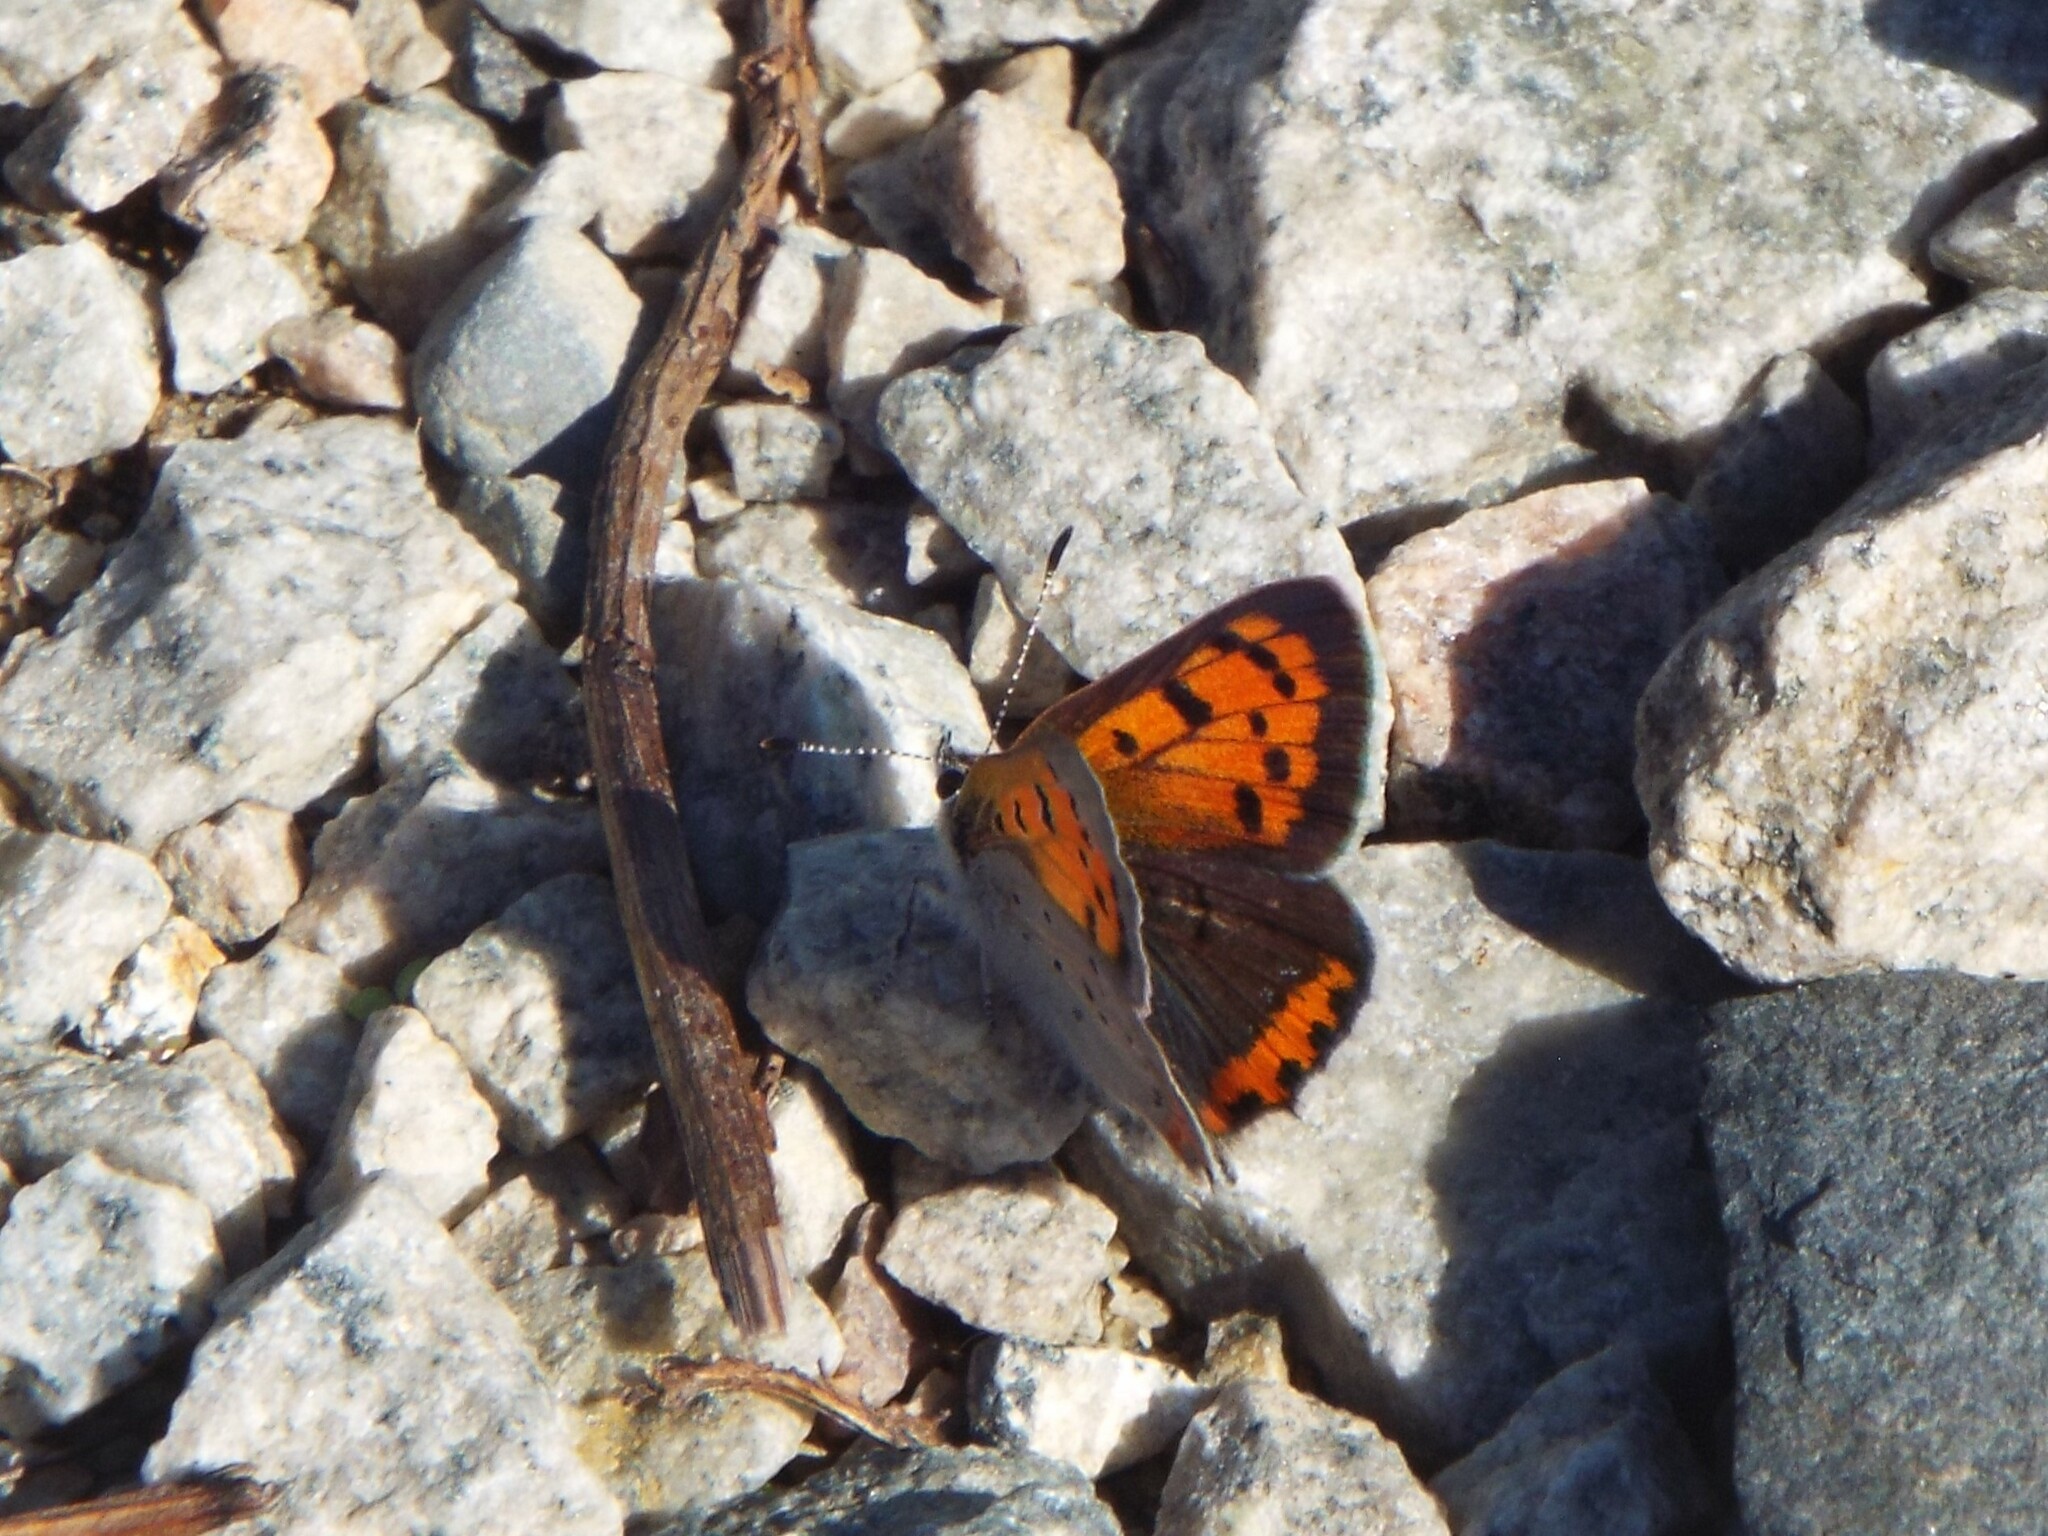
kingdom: Animalia
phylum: Arthropoda
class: Insecta
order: Lepidoptera
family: Lycaenidae
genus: Lycaena
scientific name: Lycaena hypophlaeas
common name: American copper
